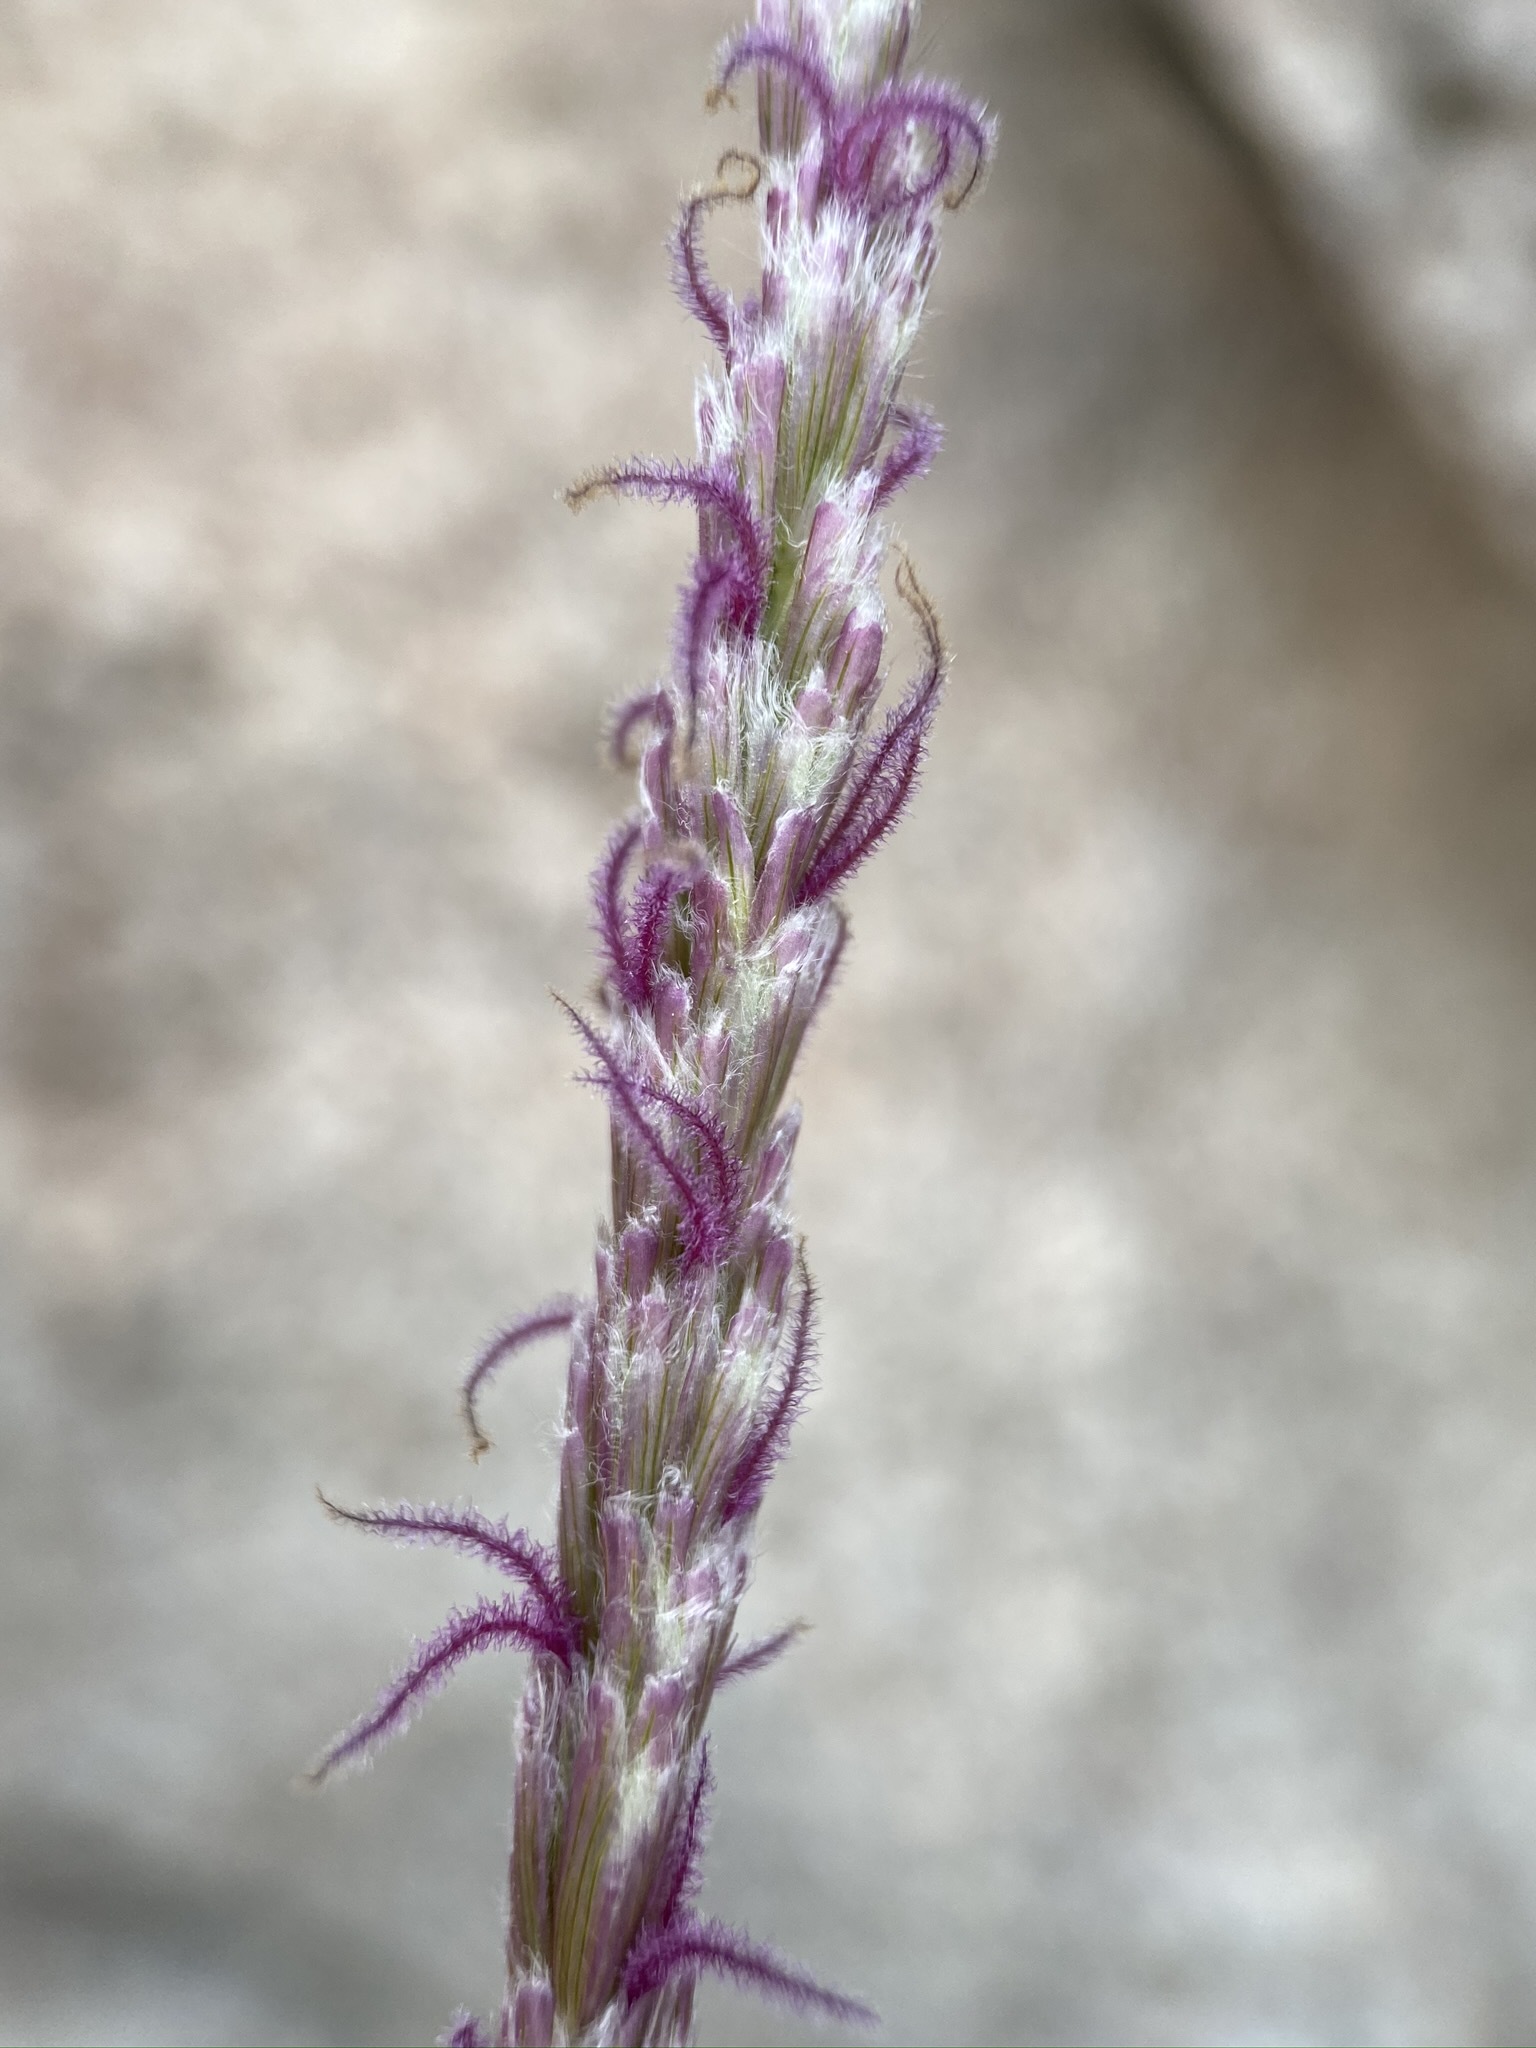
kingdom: Plantae
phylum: Tracheophyta
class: Liliopsida
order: Poales
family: Poaceae
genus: Hilaria
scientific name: Hilaria rigida
